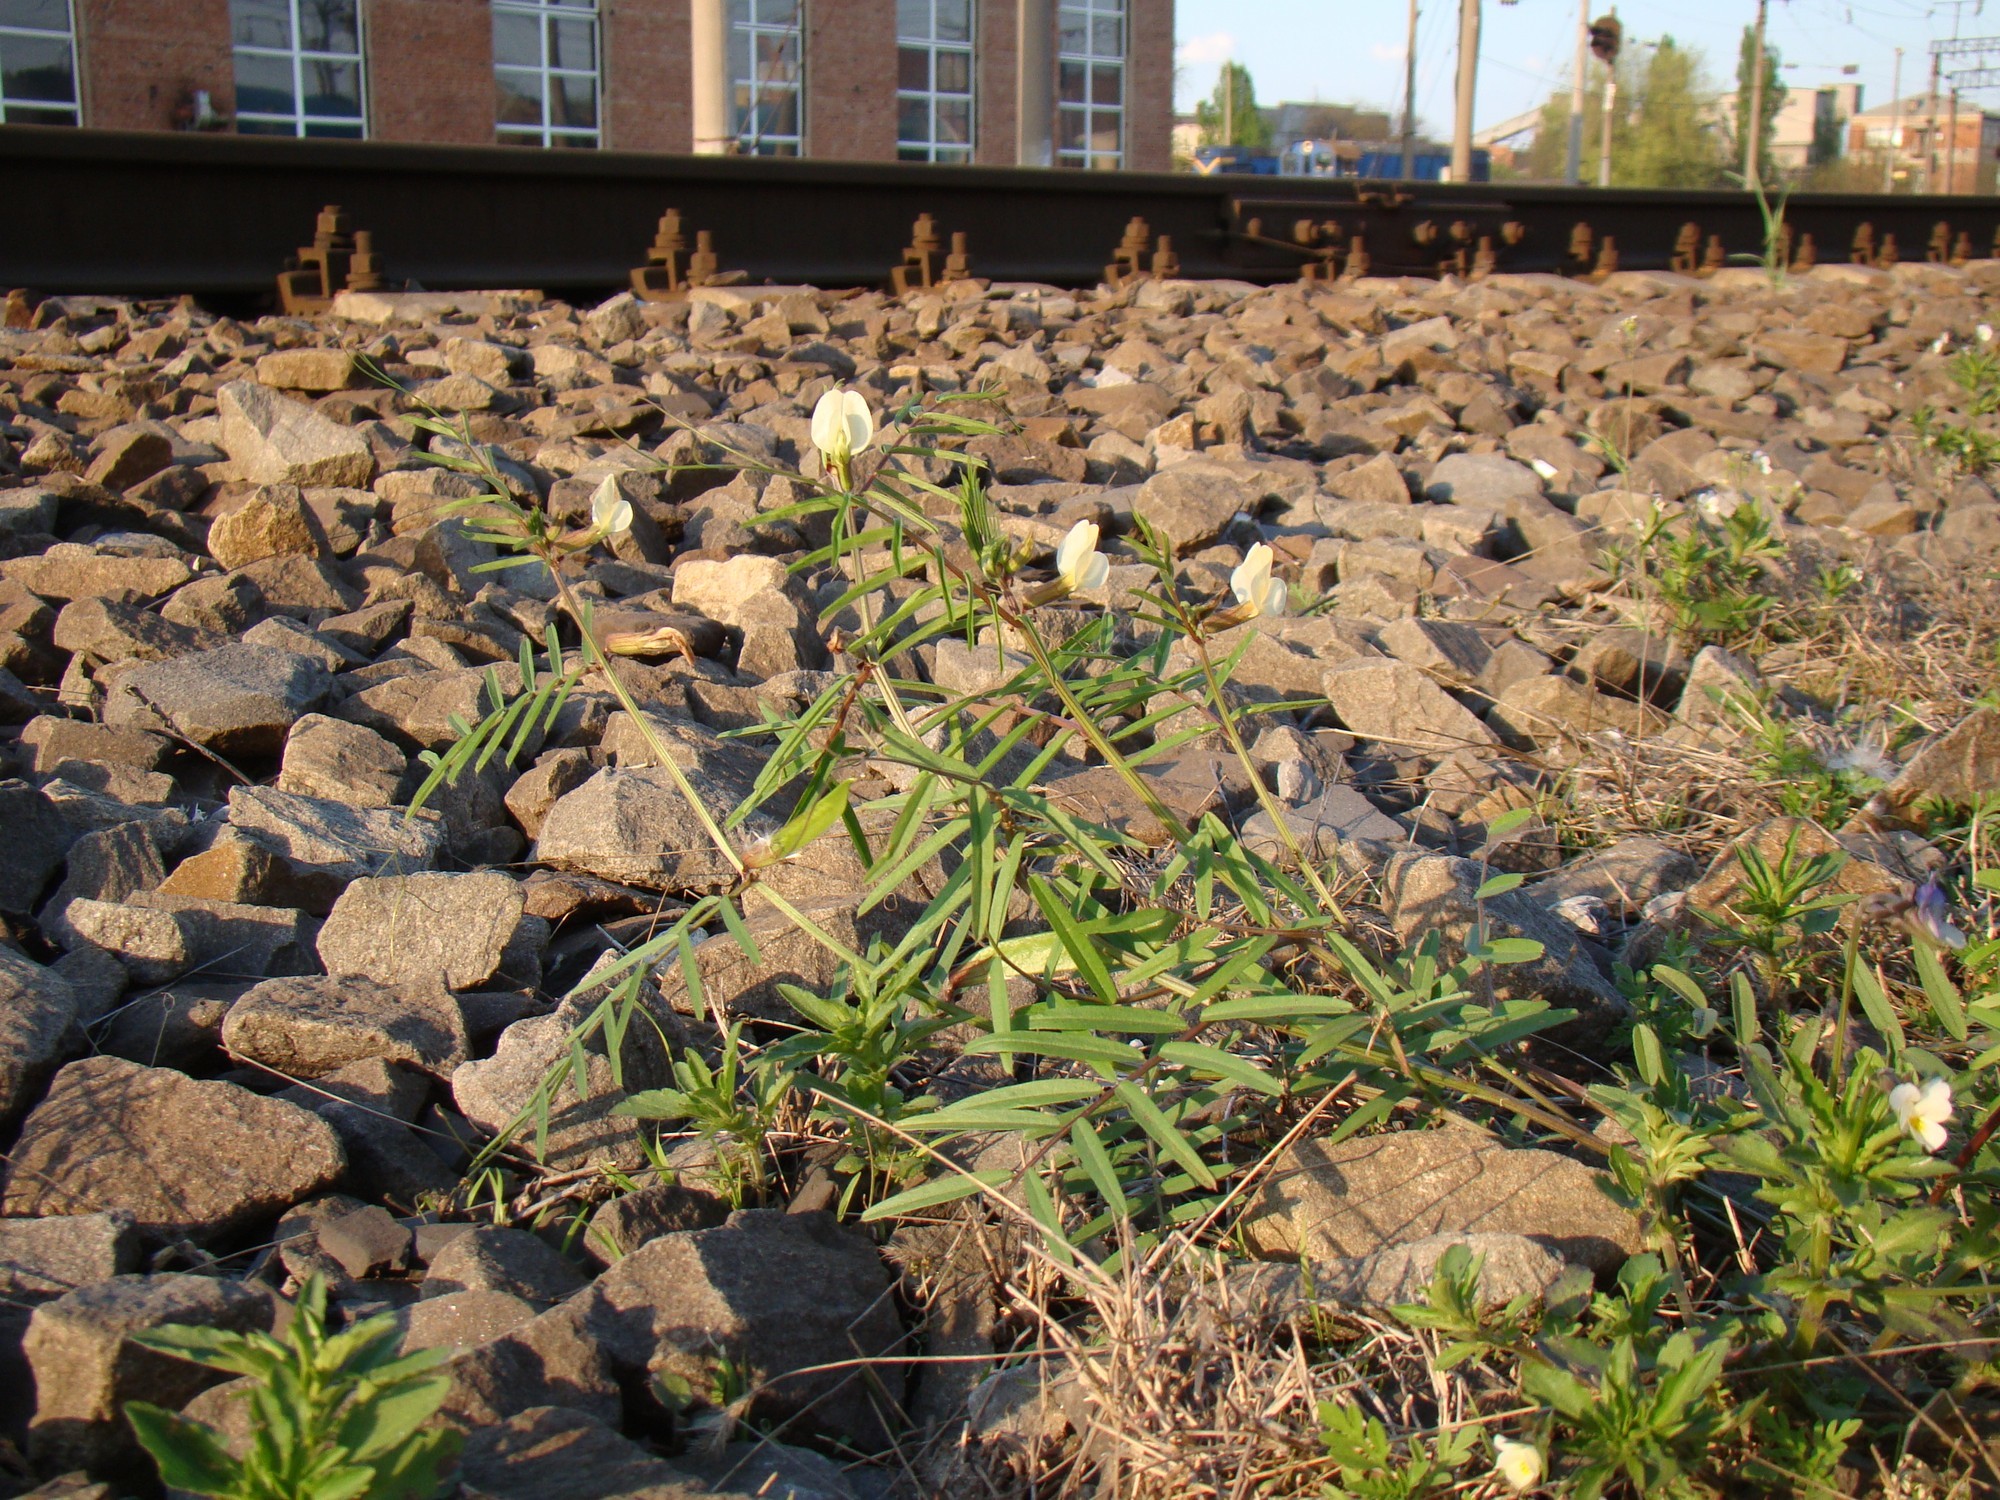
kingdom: Plantae
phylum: Tracheophyta
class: Magnoliopsida
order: Fabales
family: Fabaceae
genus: Vicia
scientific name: Vicia biebersteinii
